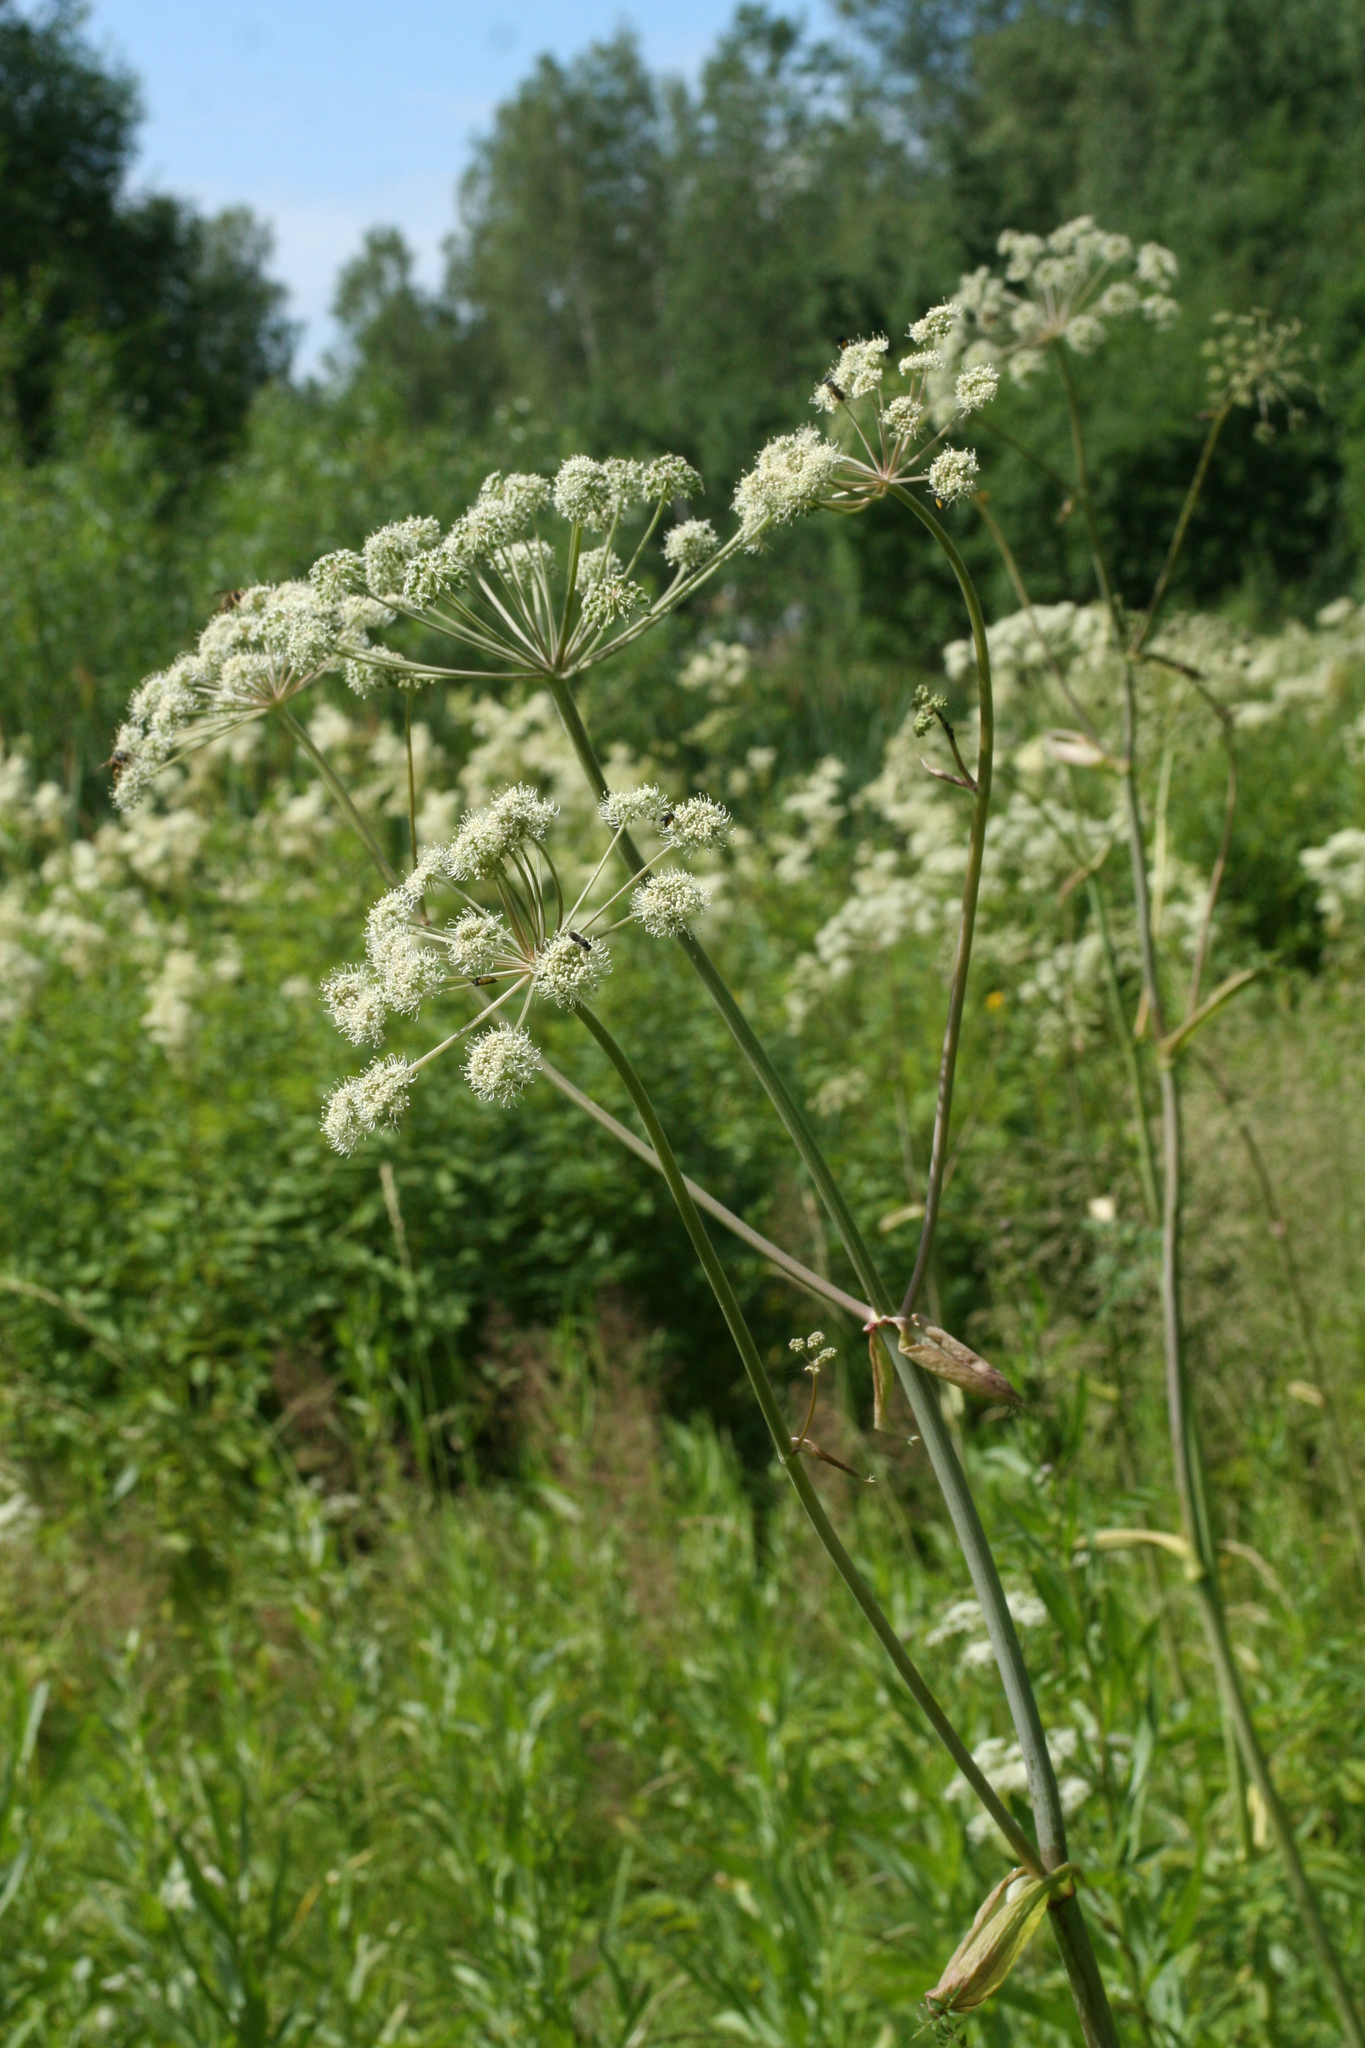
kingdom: Plantae
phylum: Tracheophyta
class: Magnoliopsida
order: Apiales
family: Apiaceae
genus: Angelica
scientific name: Angelica sylvestris
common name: Wild angelica
